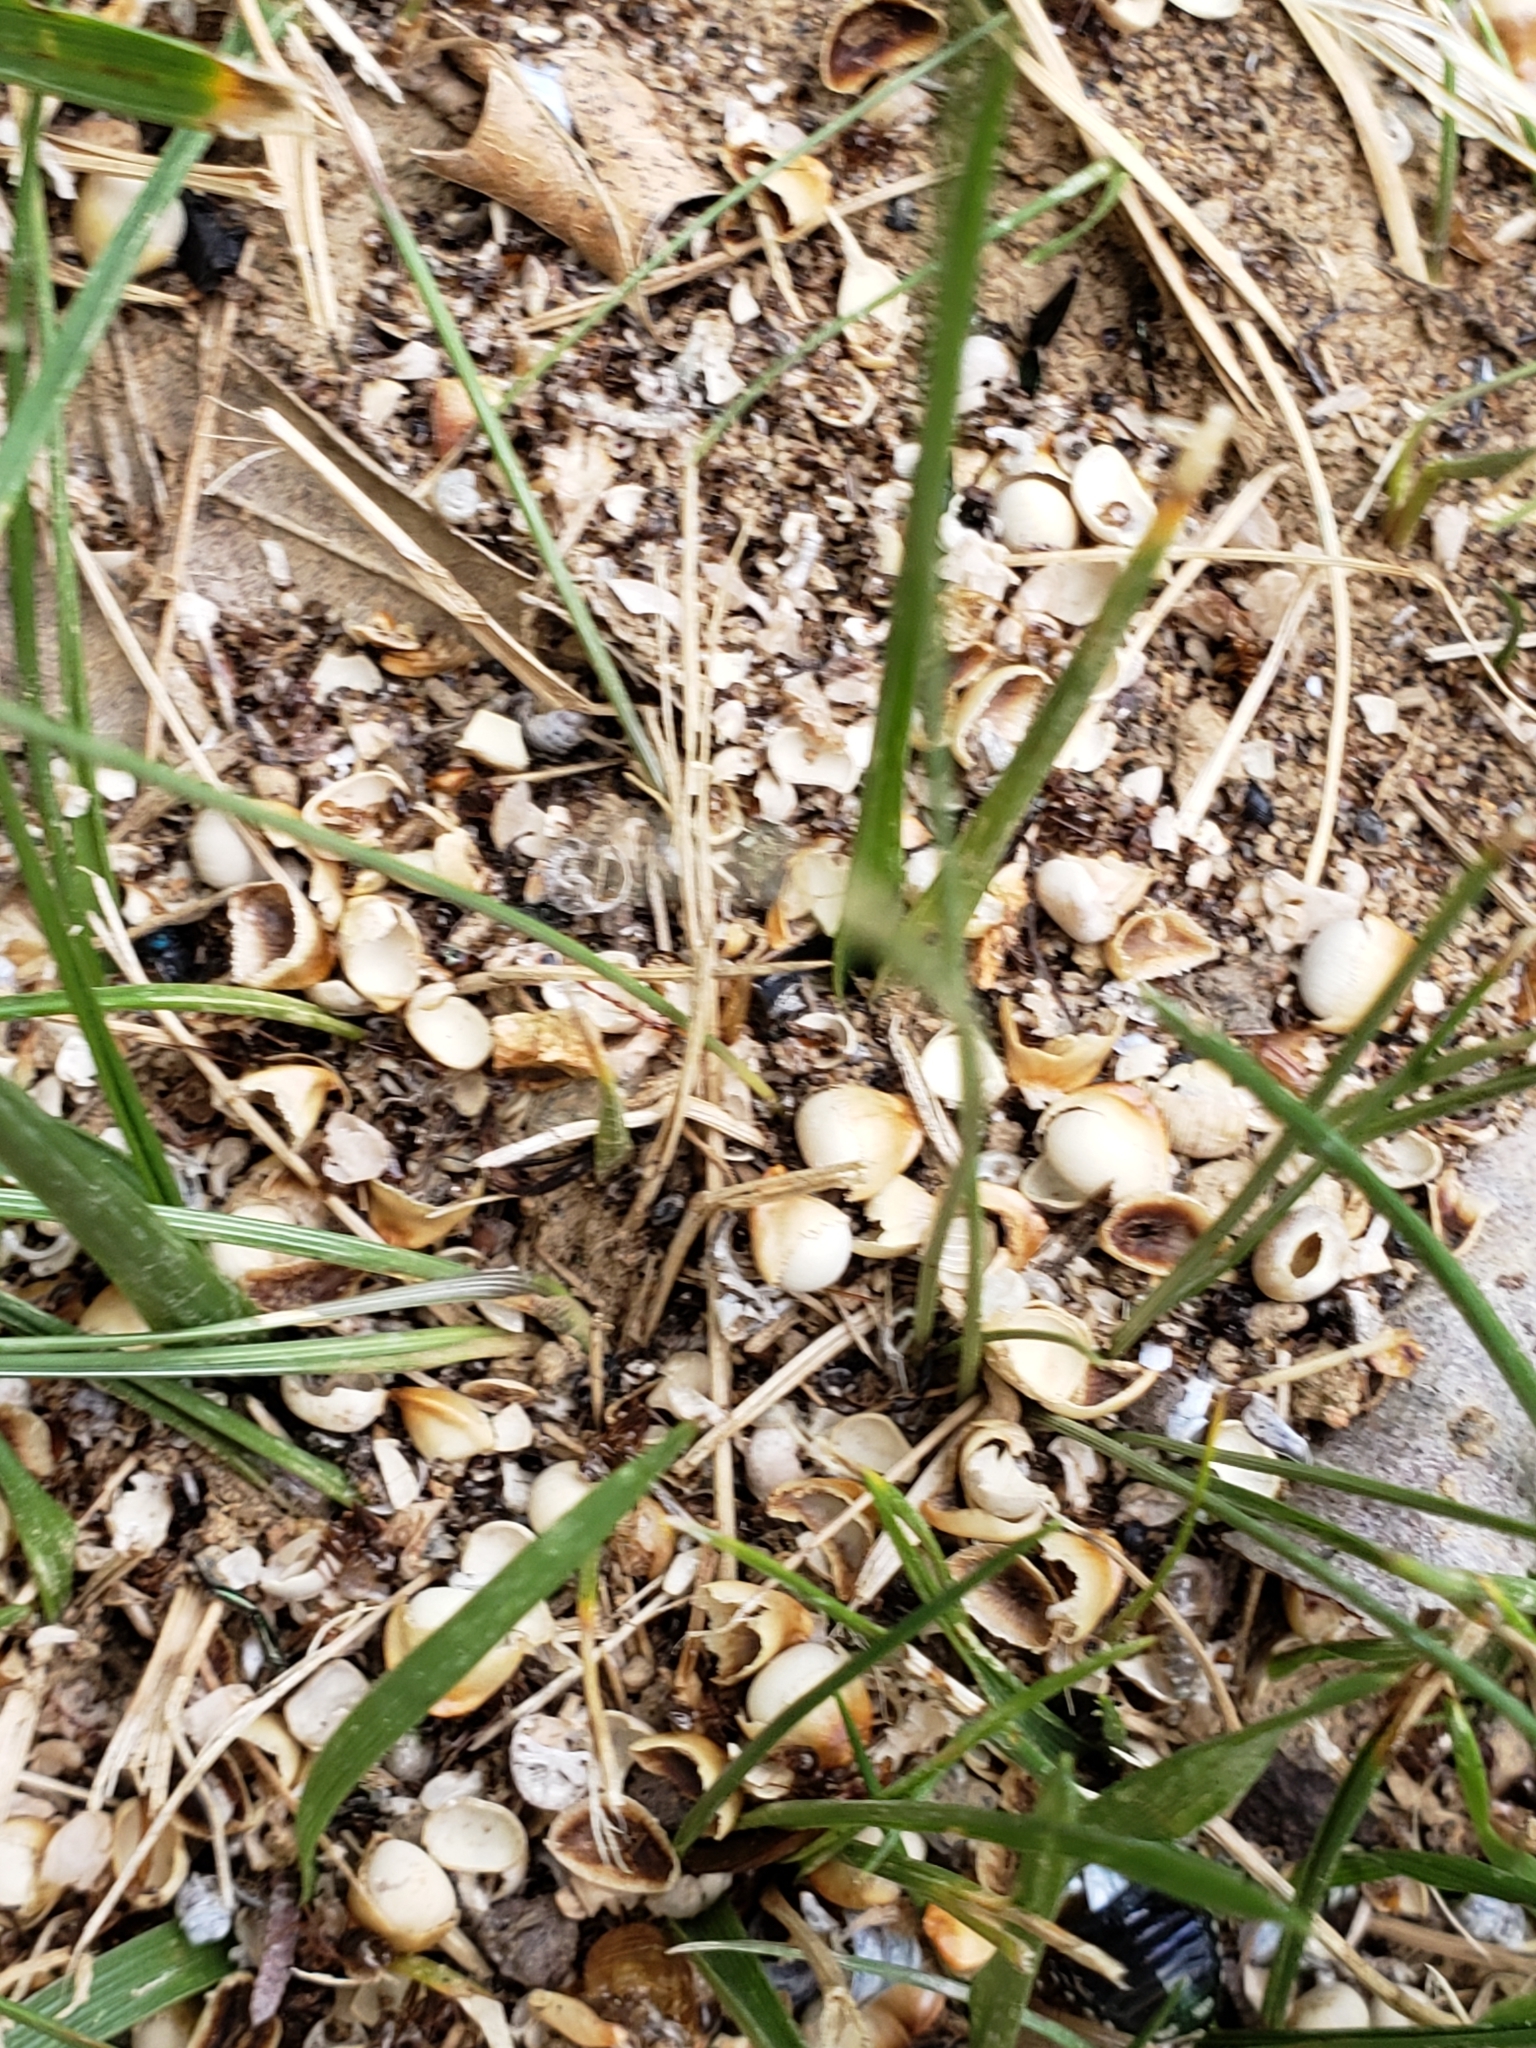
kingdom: Animalia
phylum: Arthropoda
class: Insecta
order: Hymenoptera
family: Cynipidae
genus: Callirhytis
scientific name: Callirhytis
